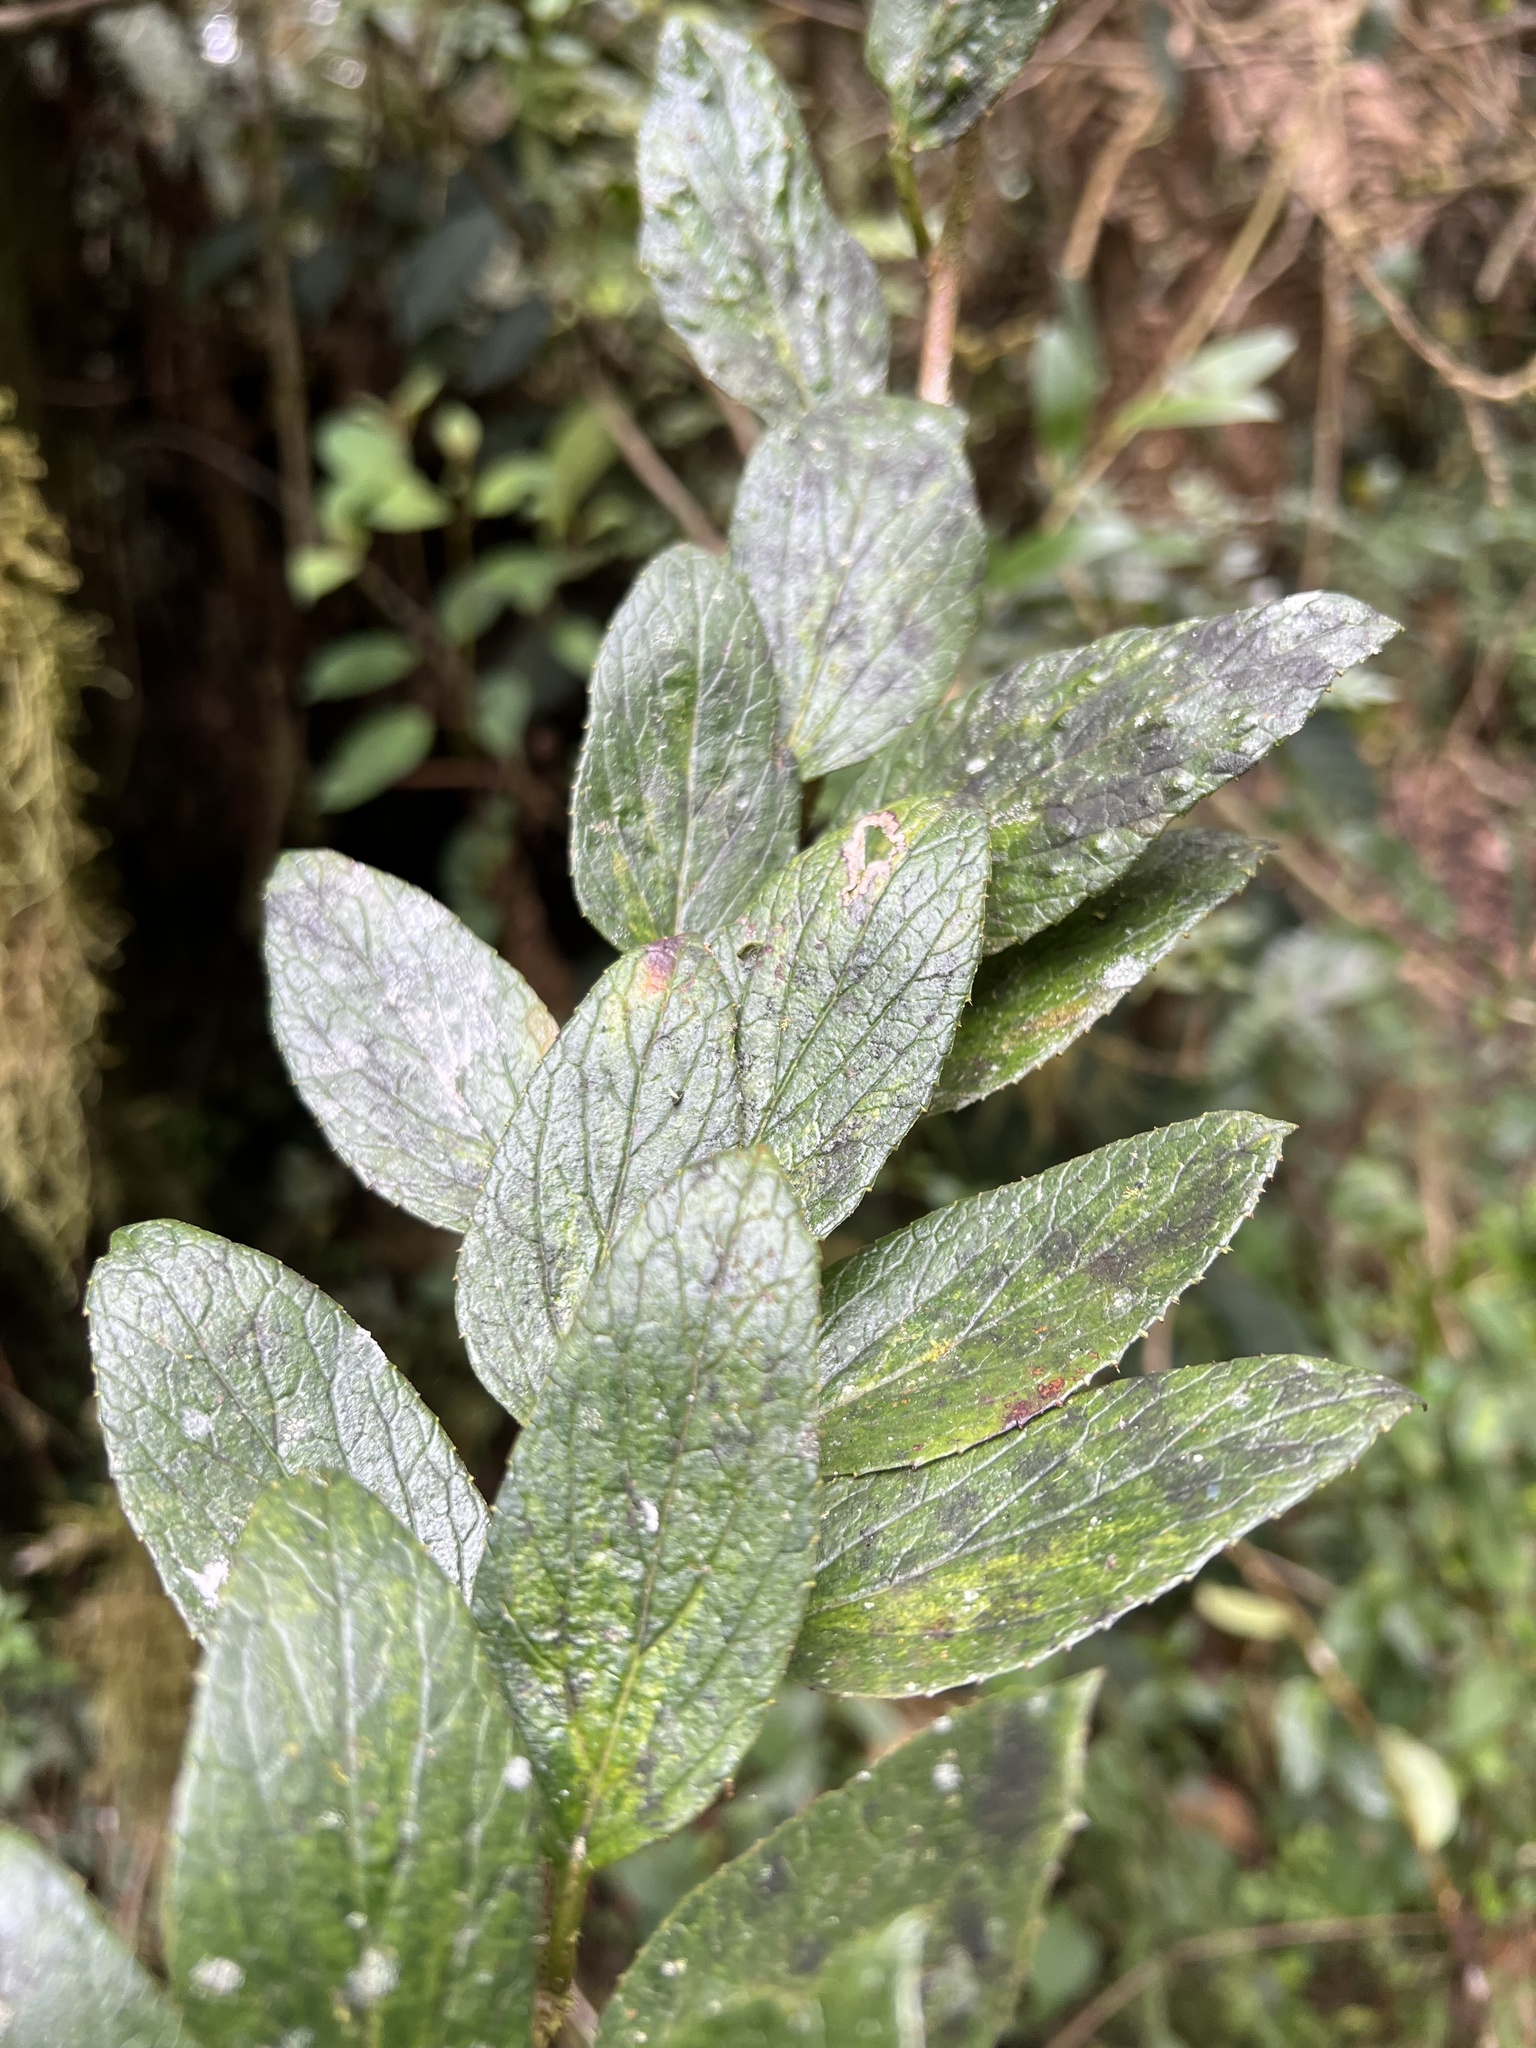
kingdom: Plantae
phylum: Tracheophyta
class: Magnoliopsida
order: Asterales
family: Campanulaceae
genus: Siphocampylus
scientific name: Siphocampylus retrorsus
